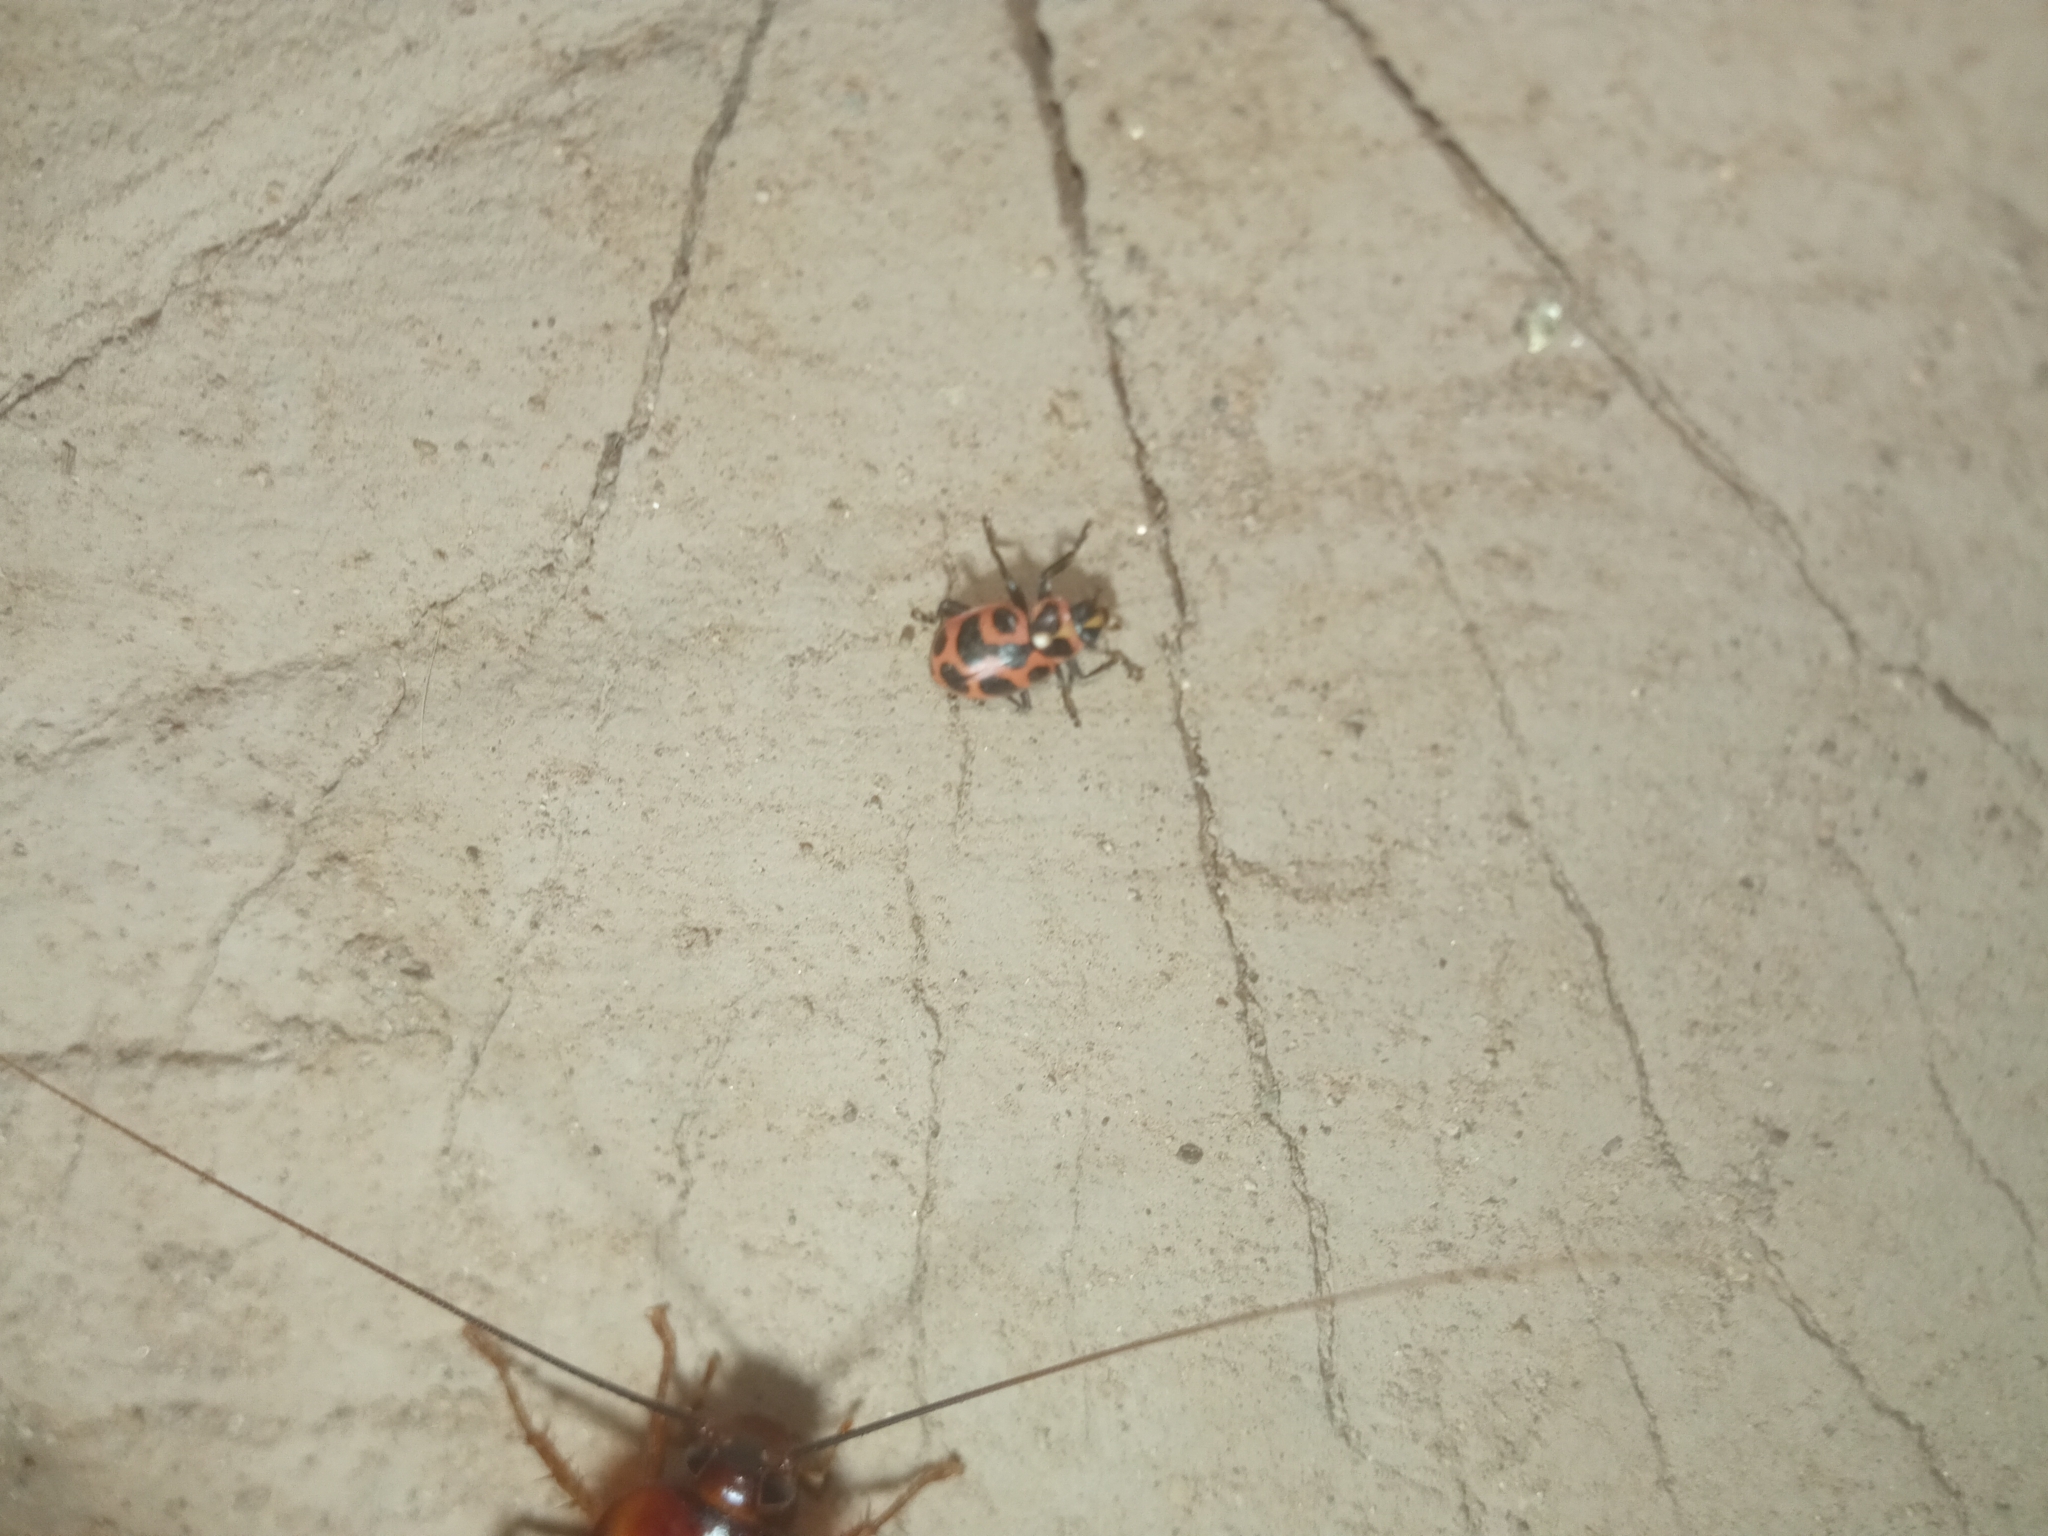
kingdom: Animalia
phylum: Arthropoda
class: Insecta
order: Coleoptera
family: Coccinellidae
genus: Coleomegilla
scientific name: Coleomegilla maculata
